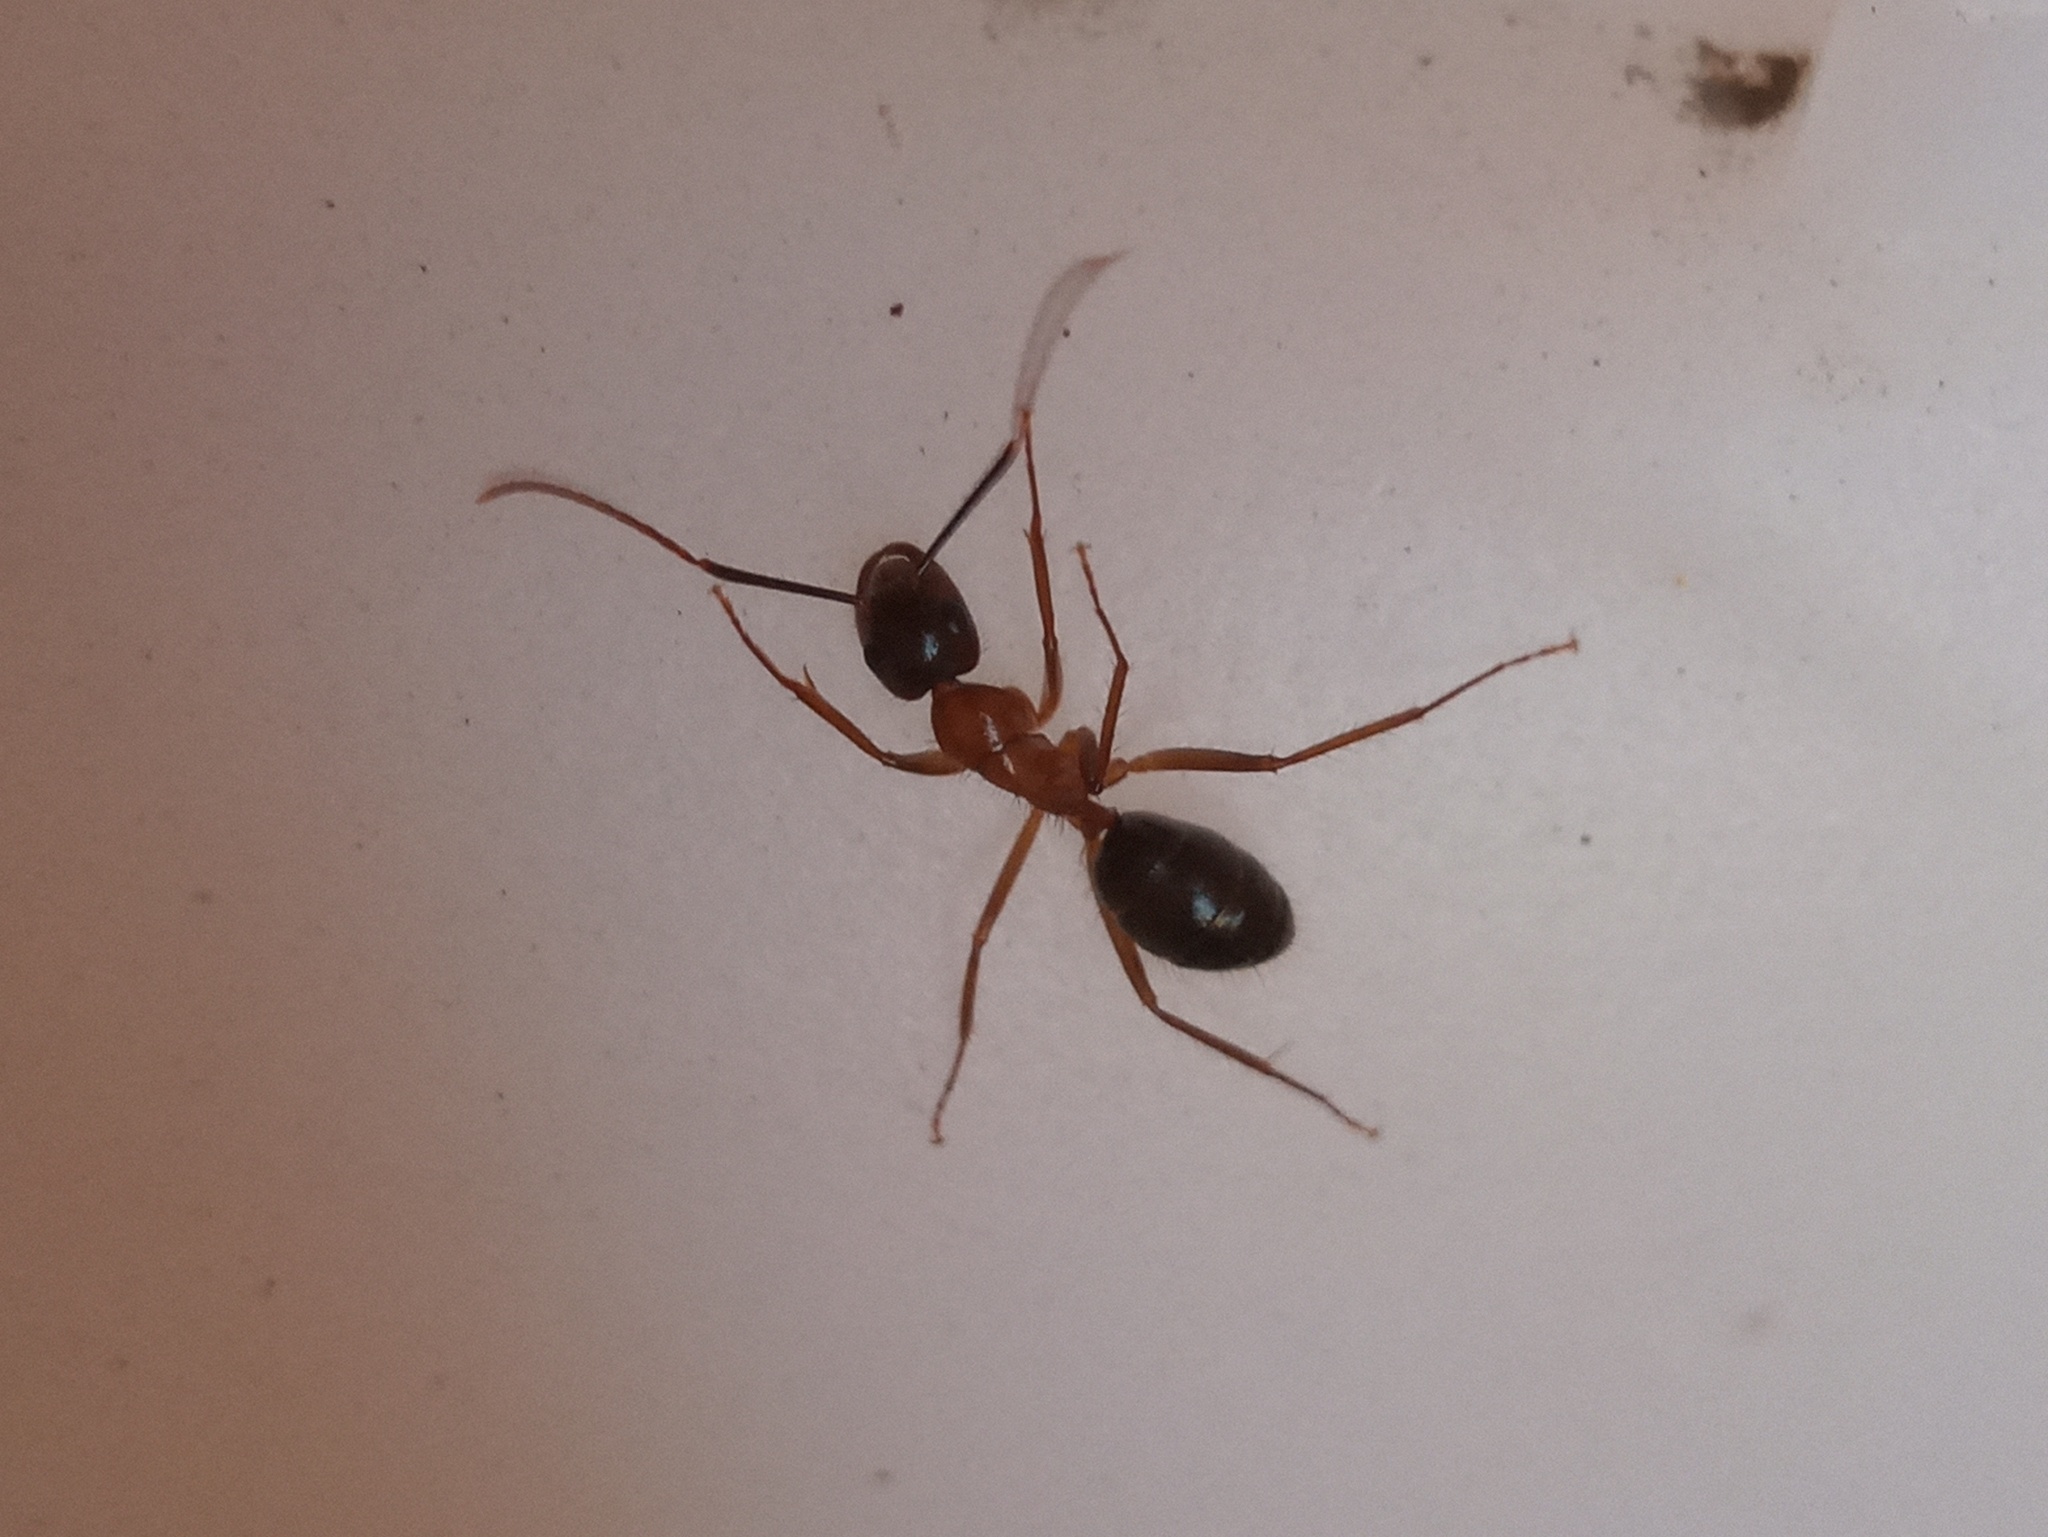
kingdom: Animalia
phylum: Arthropoda
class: Insecta
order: Hymenoptera
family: Formicidae
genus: Camponotus
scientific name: Camponotus atriceps
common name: Florida carpenter ant
